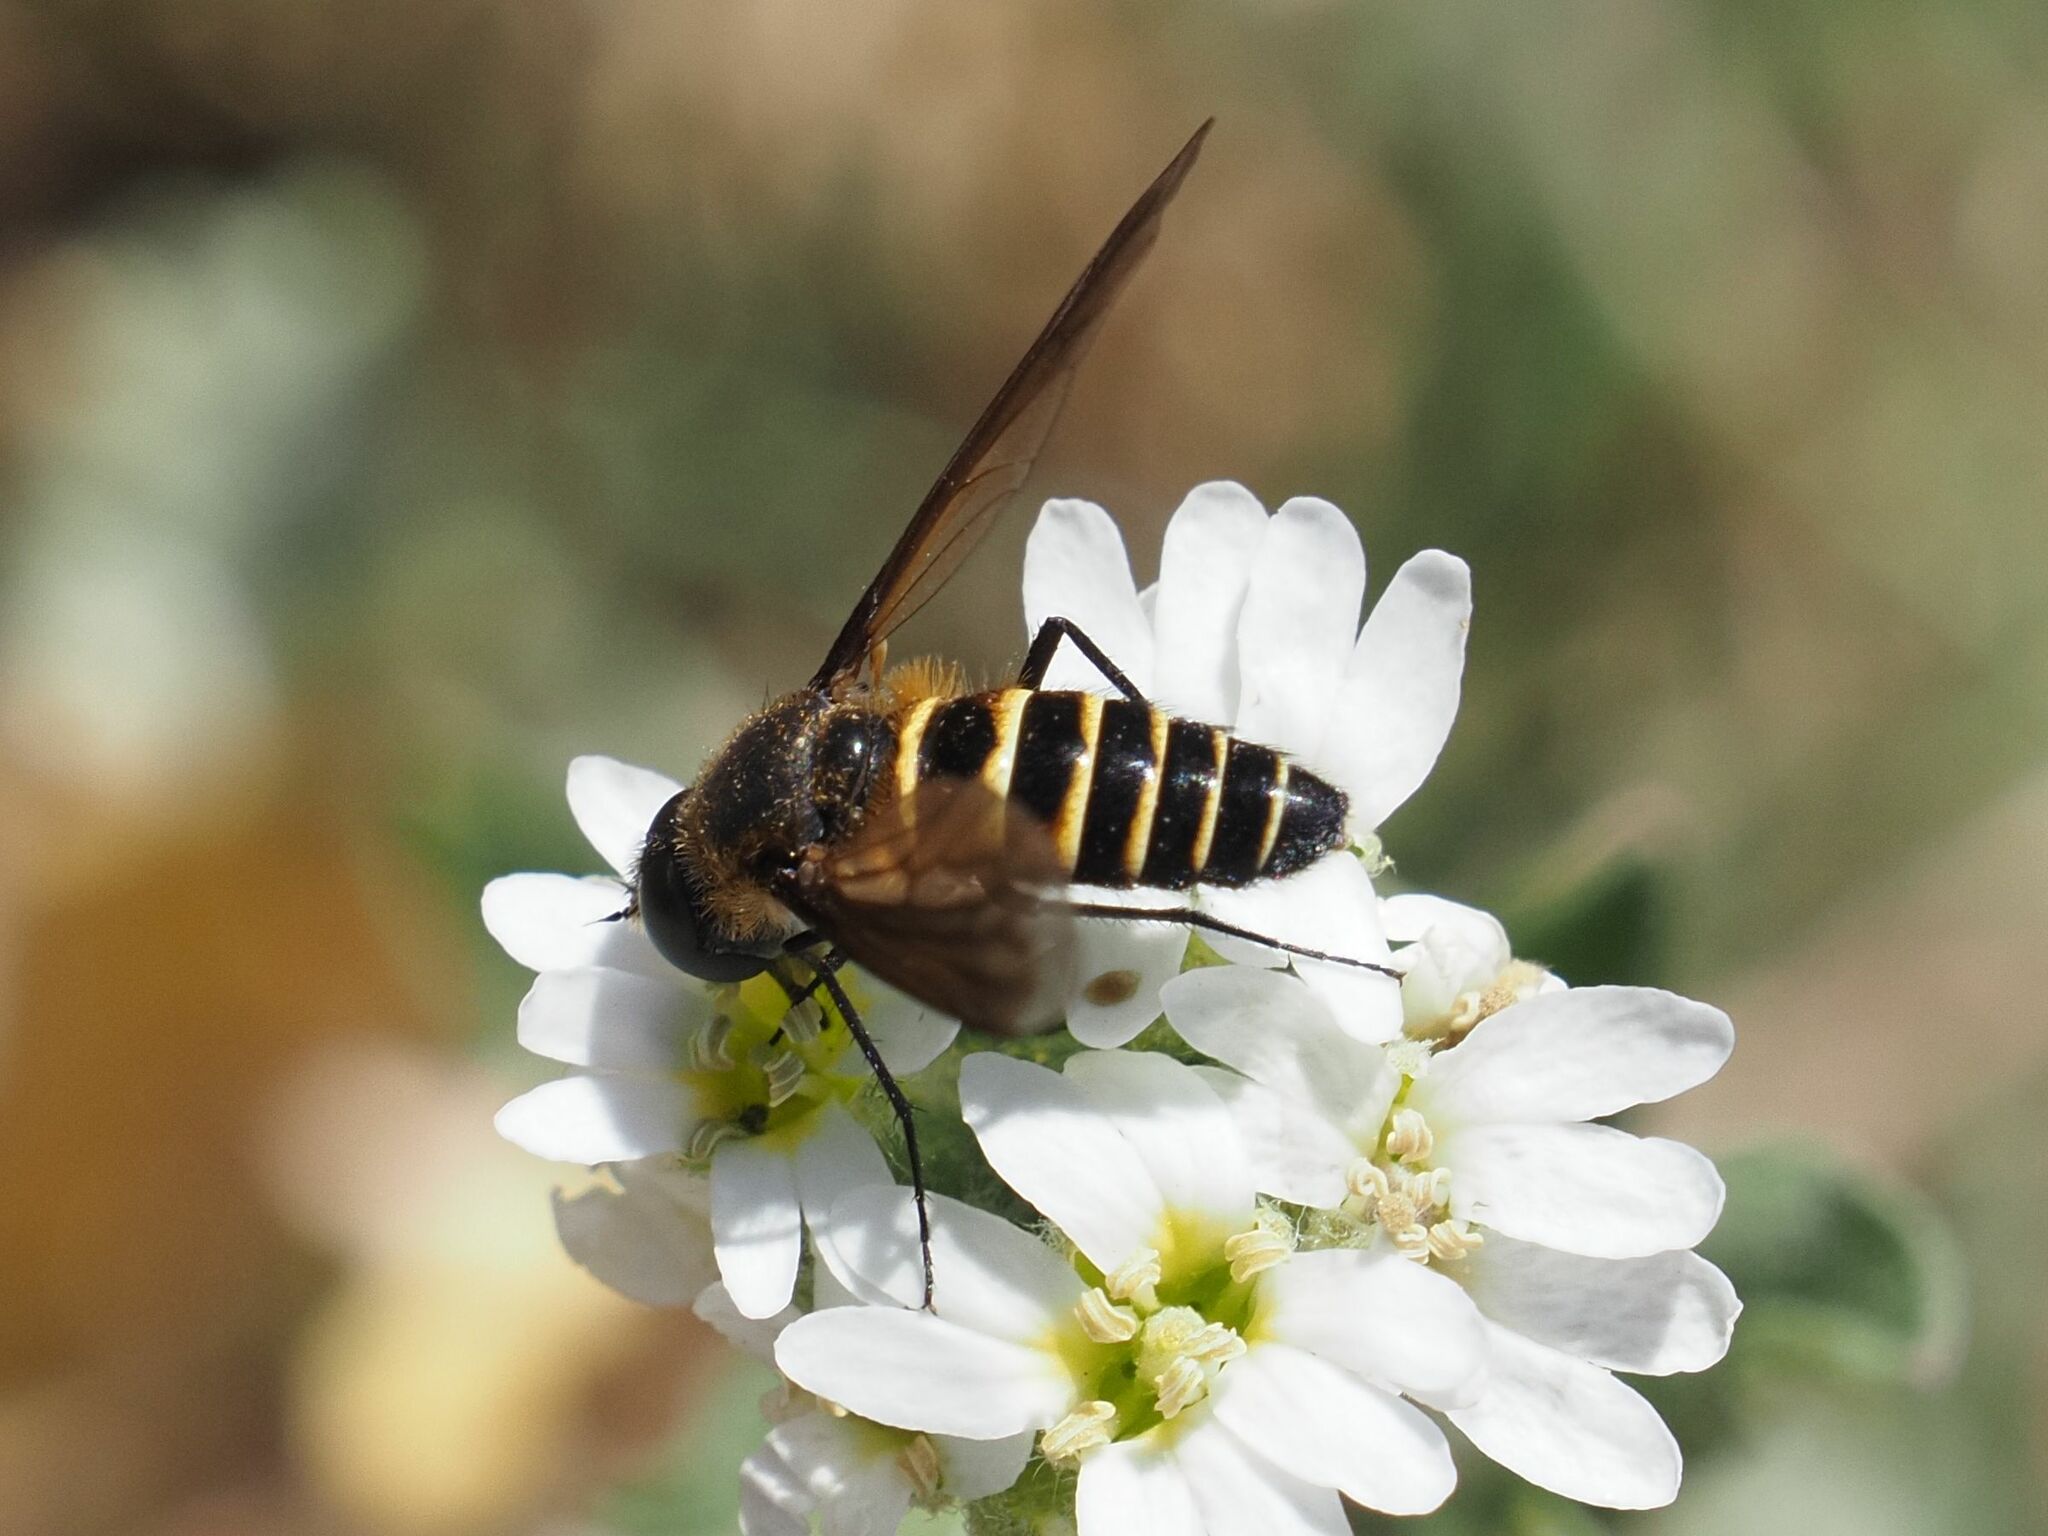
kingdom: Animalia
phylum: Arthropoda
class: Insecta
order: Diptera
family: Bombyliidae
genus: Lomatia
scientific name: Lomatia lateralis
